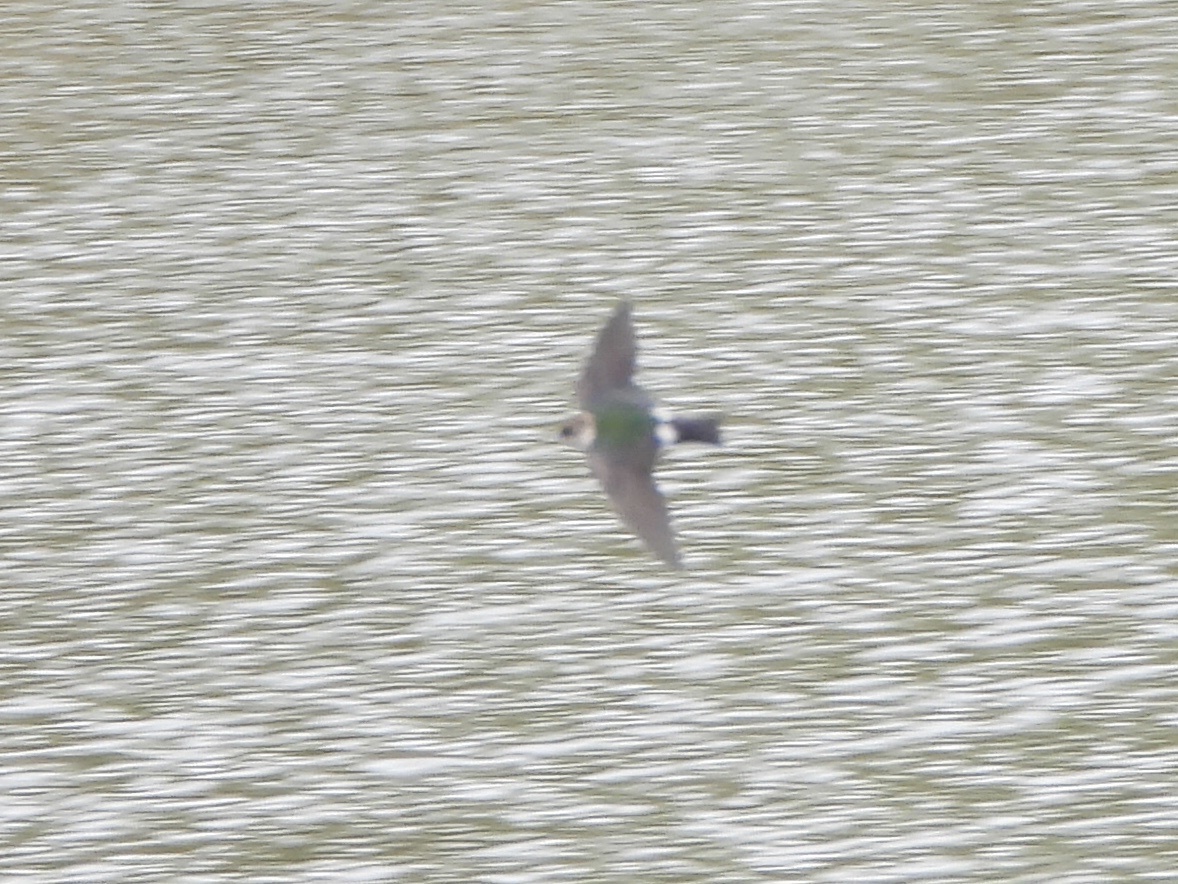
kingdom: Animalia
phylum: Chordata
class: Aves
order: Passeriformes
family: Hirundinidae
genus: Tachycineta
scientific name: Tachycineta thalassina
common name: Violet-green swallow
